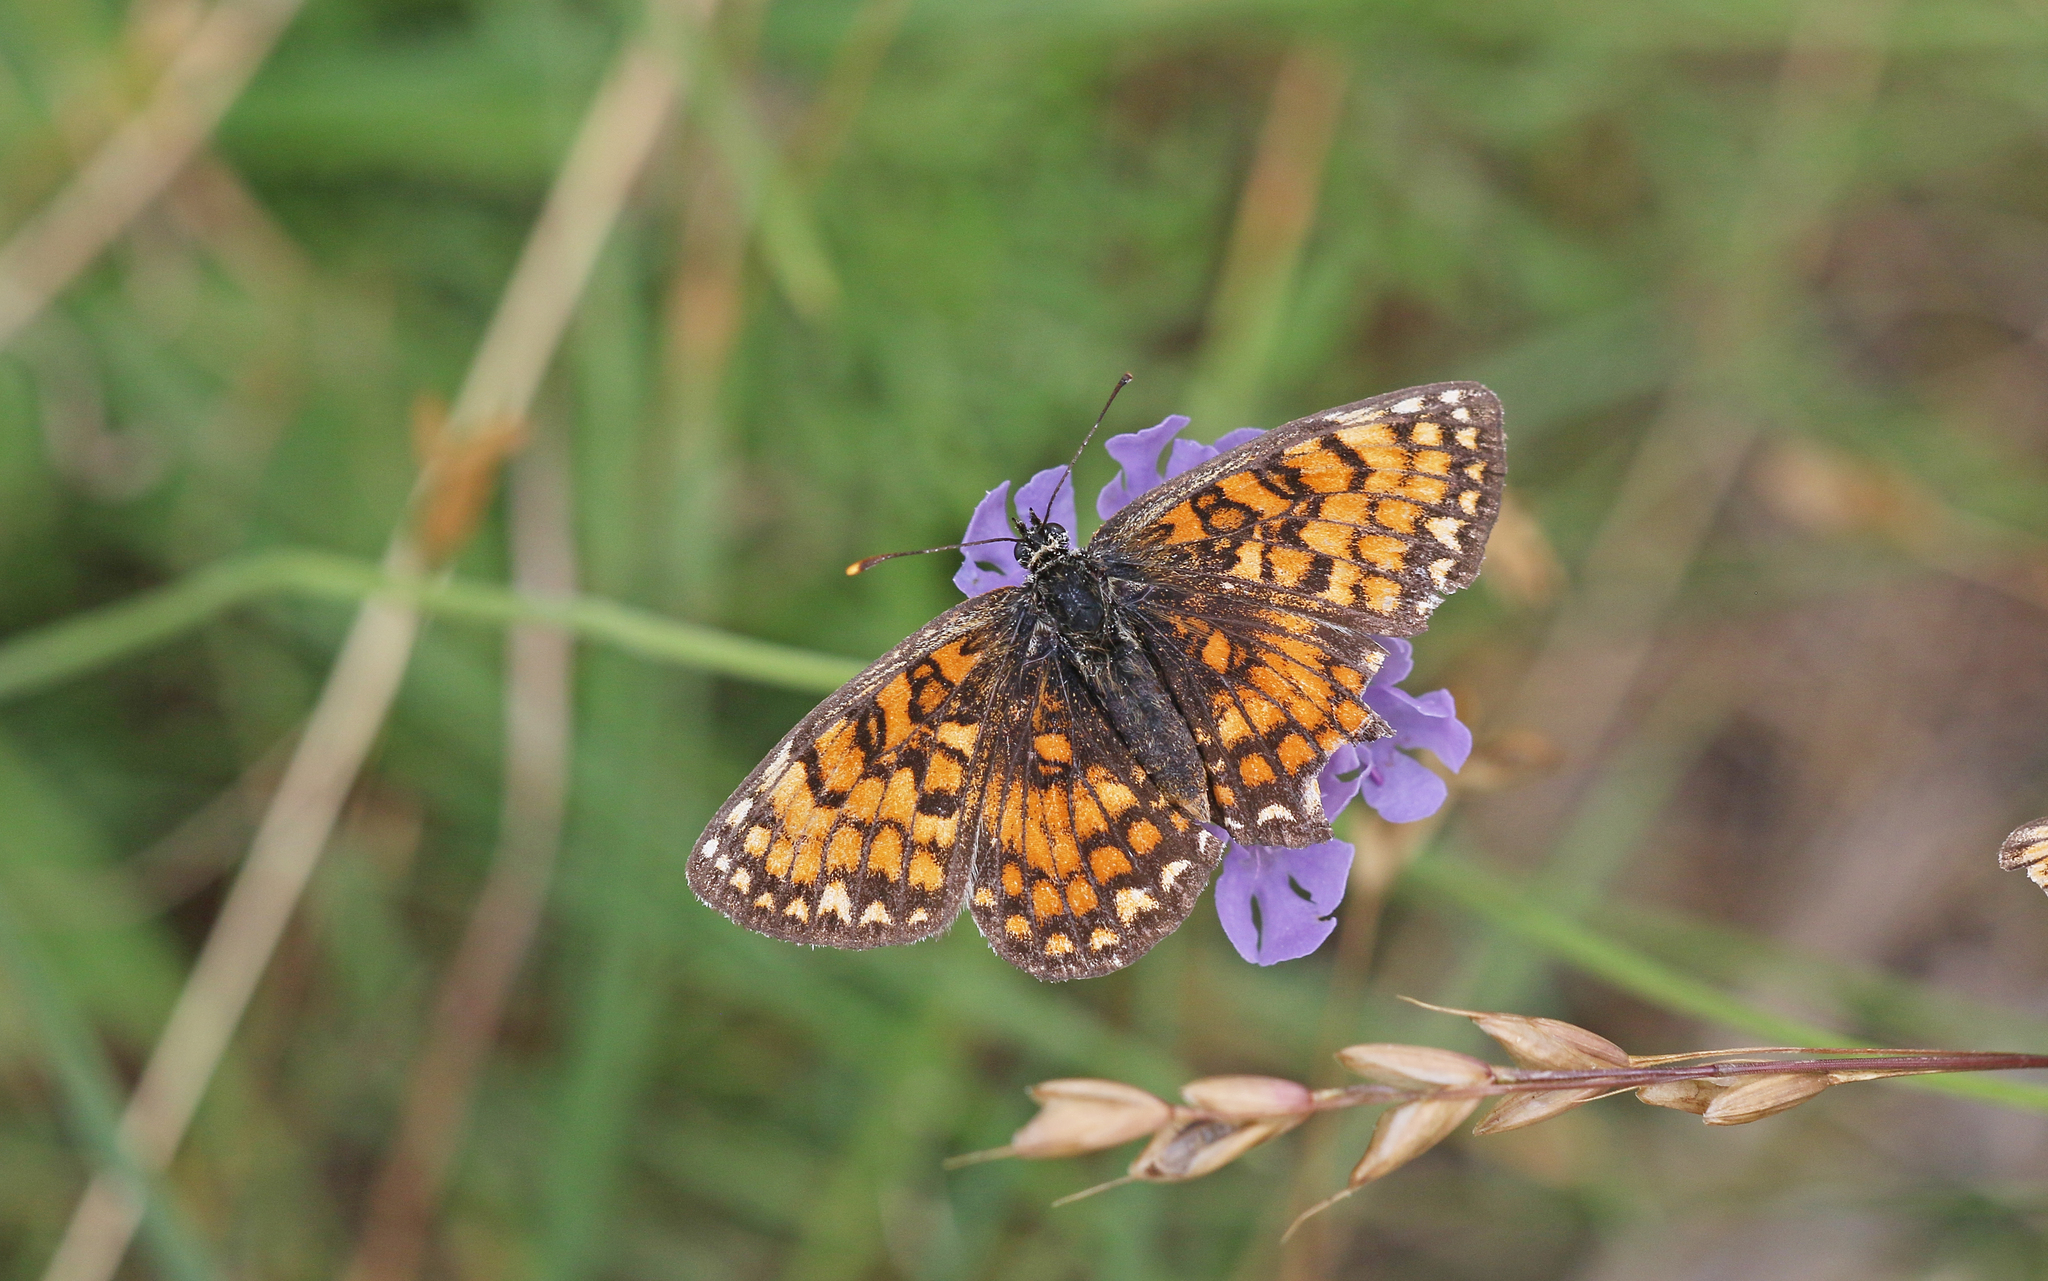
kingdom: Animalia
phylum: Arthropoda
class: Insecta
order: Lepidoptera
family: Nymphalidae
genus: Mellicta
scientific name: Mellicta athalia
